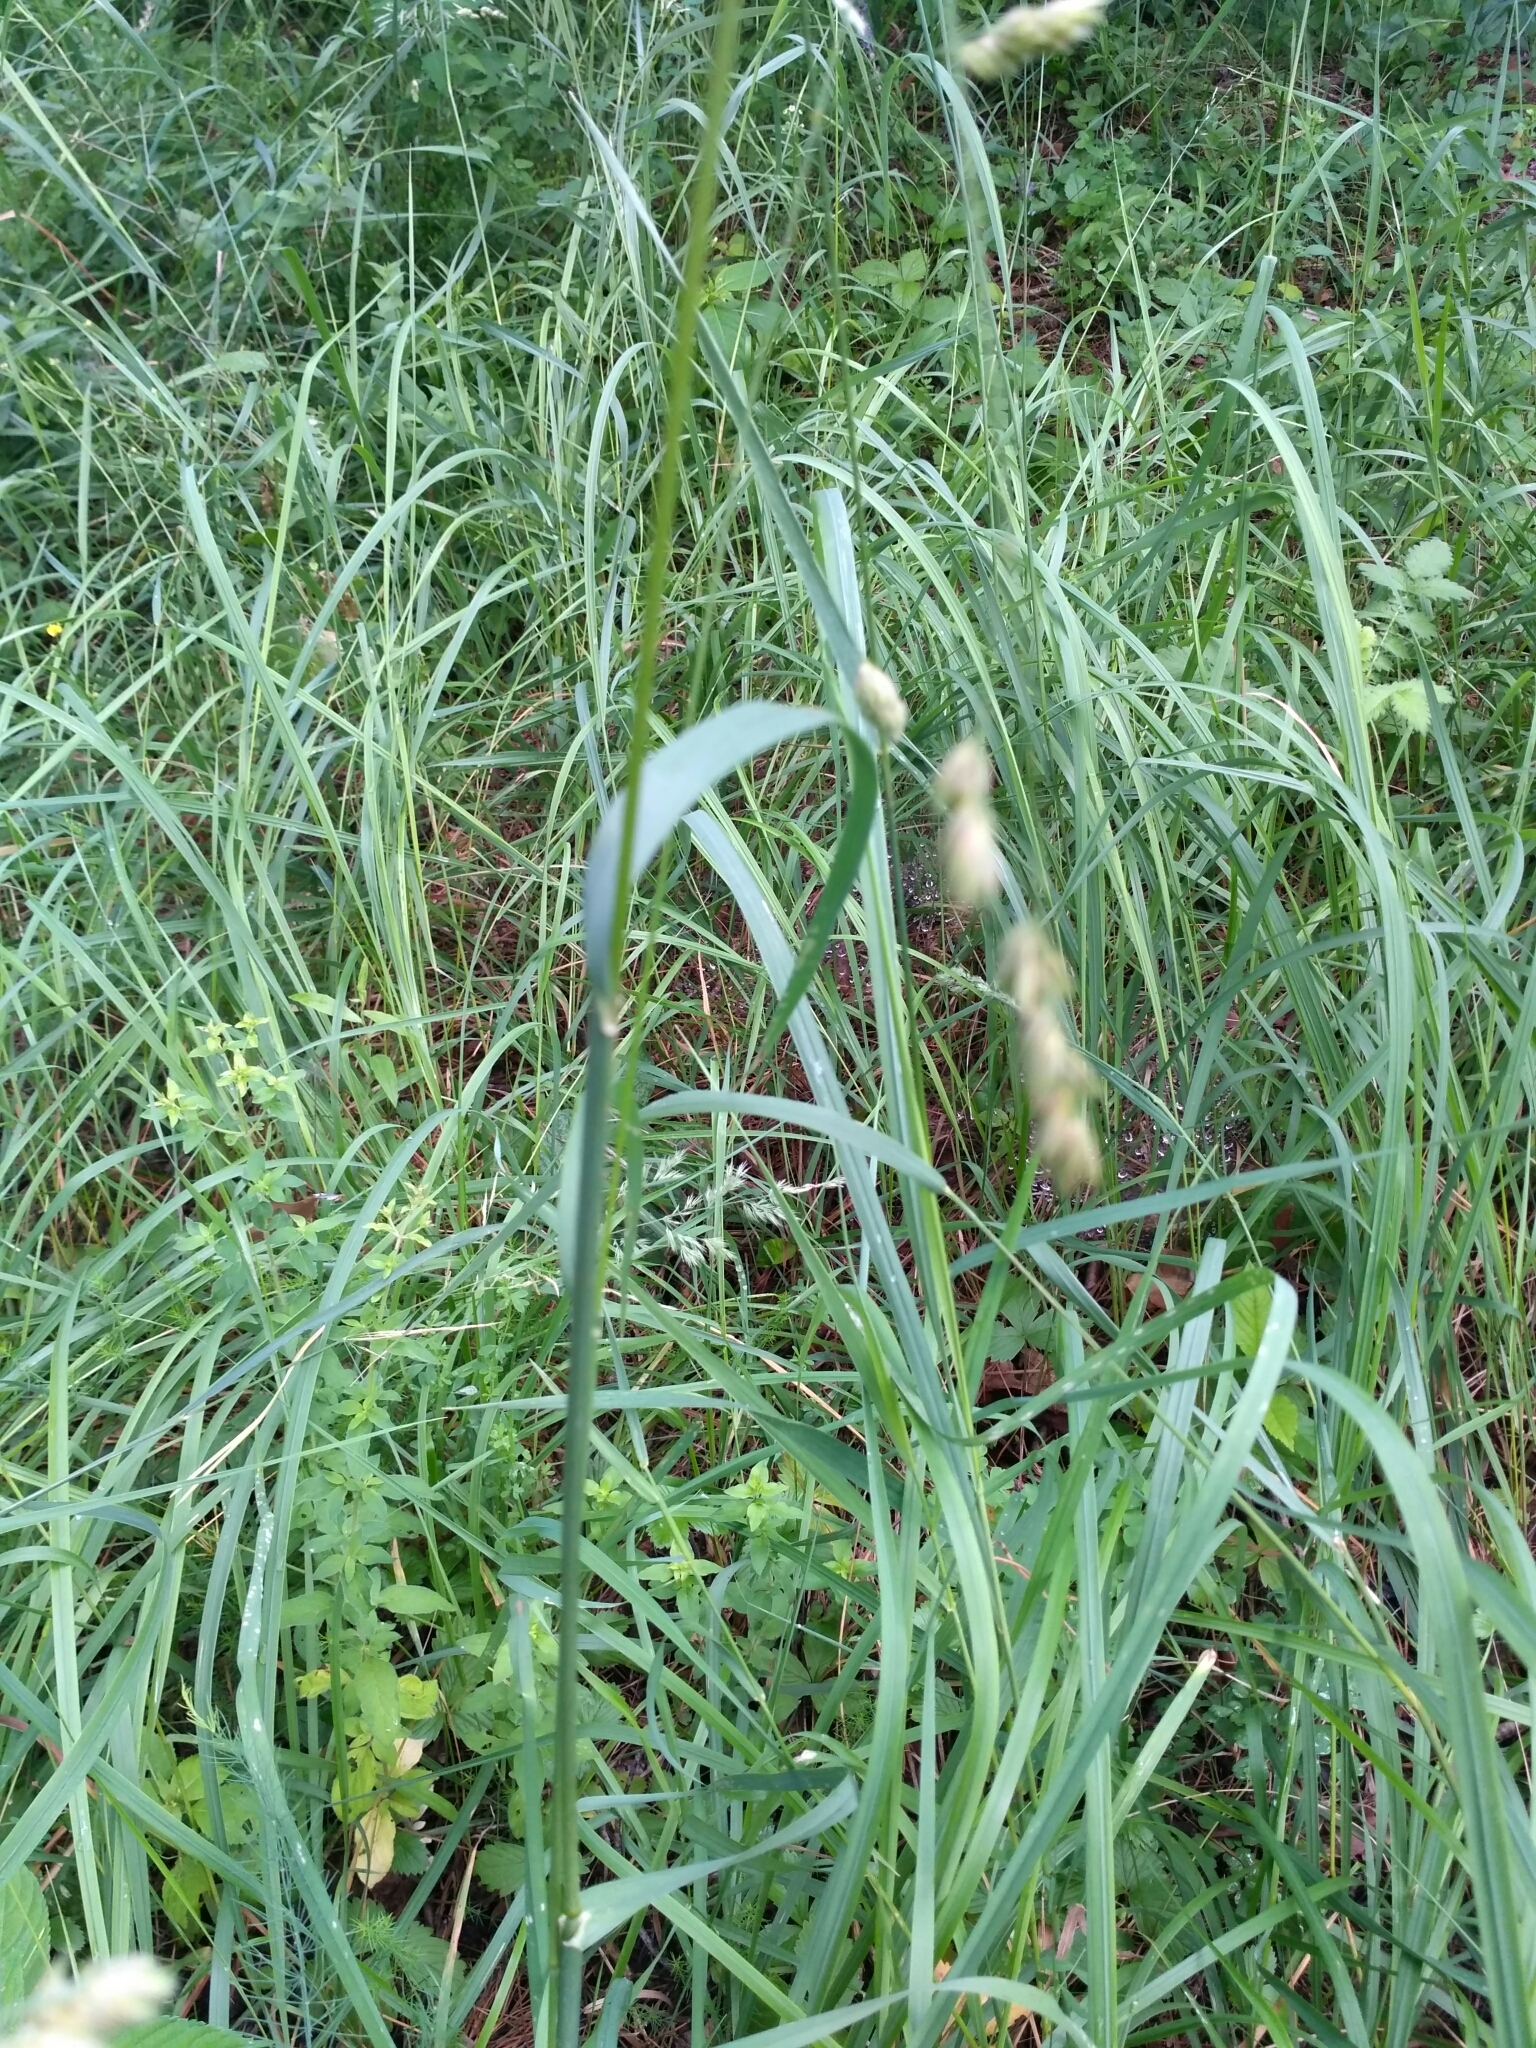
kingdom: Plantae
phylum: Tracheophyta
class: Liliopsida
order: Poales
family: Poaceae
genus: Dactylis
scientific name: Dactylis glomerata
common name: Orchardgrass
